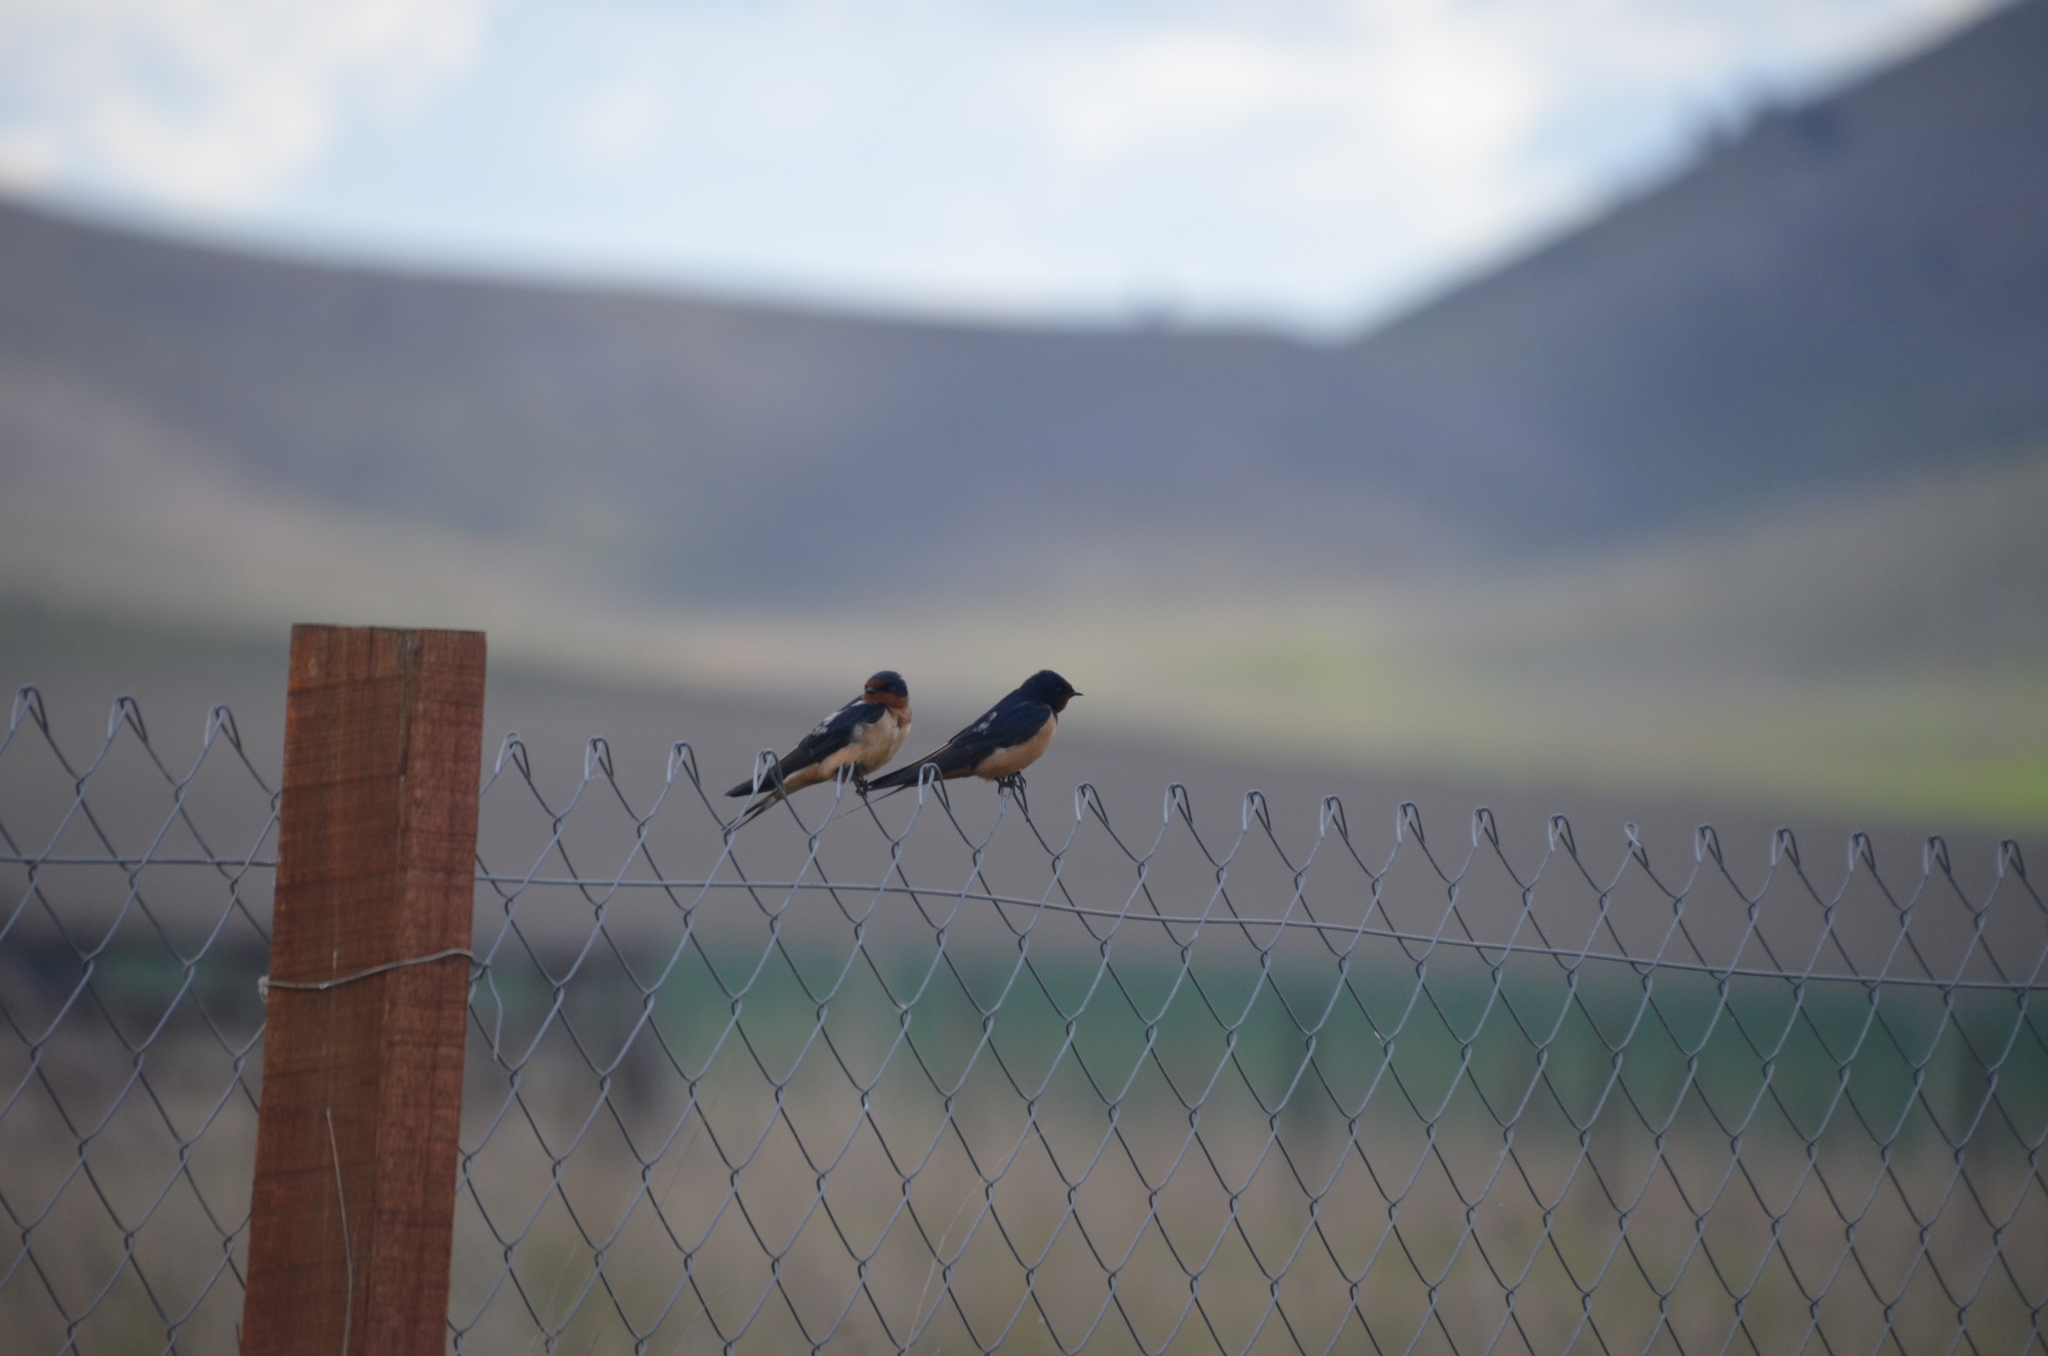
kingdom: Animalia
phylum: Chordata
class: Aves
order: Passeriformes
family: Hirundinidae
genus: Hirundo
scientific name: Hirundo rustica
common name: Barn swallow
